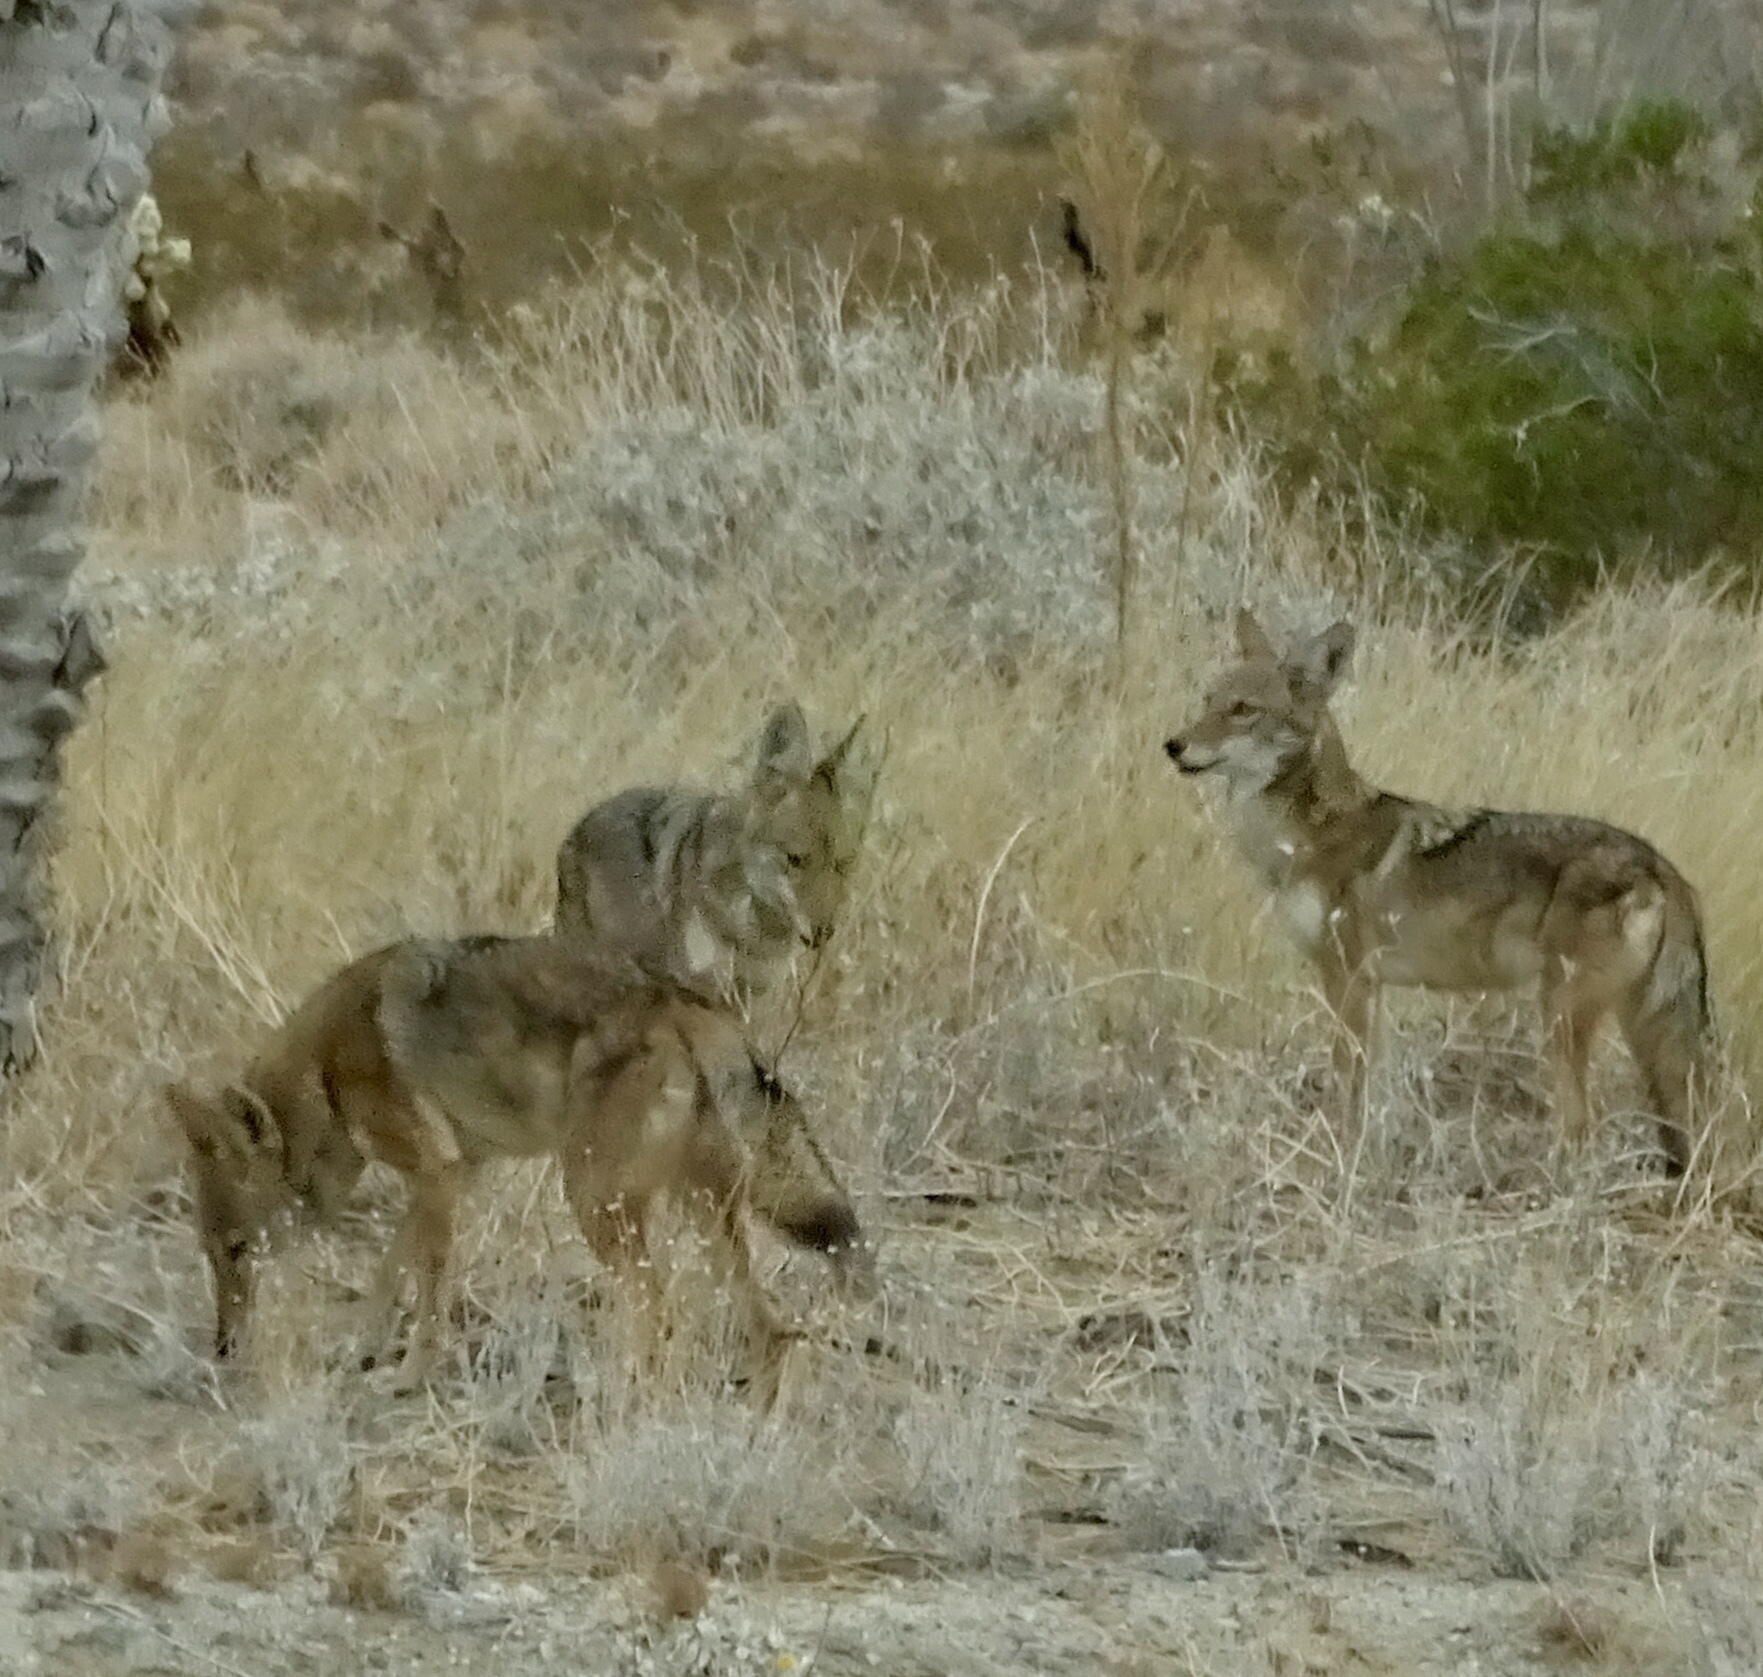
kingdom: Animalia
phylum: Chordata
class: Mammalia
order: Carnivora
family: Canidae
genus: Canis
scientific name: Canis latrans
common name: Coyote
